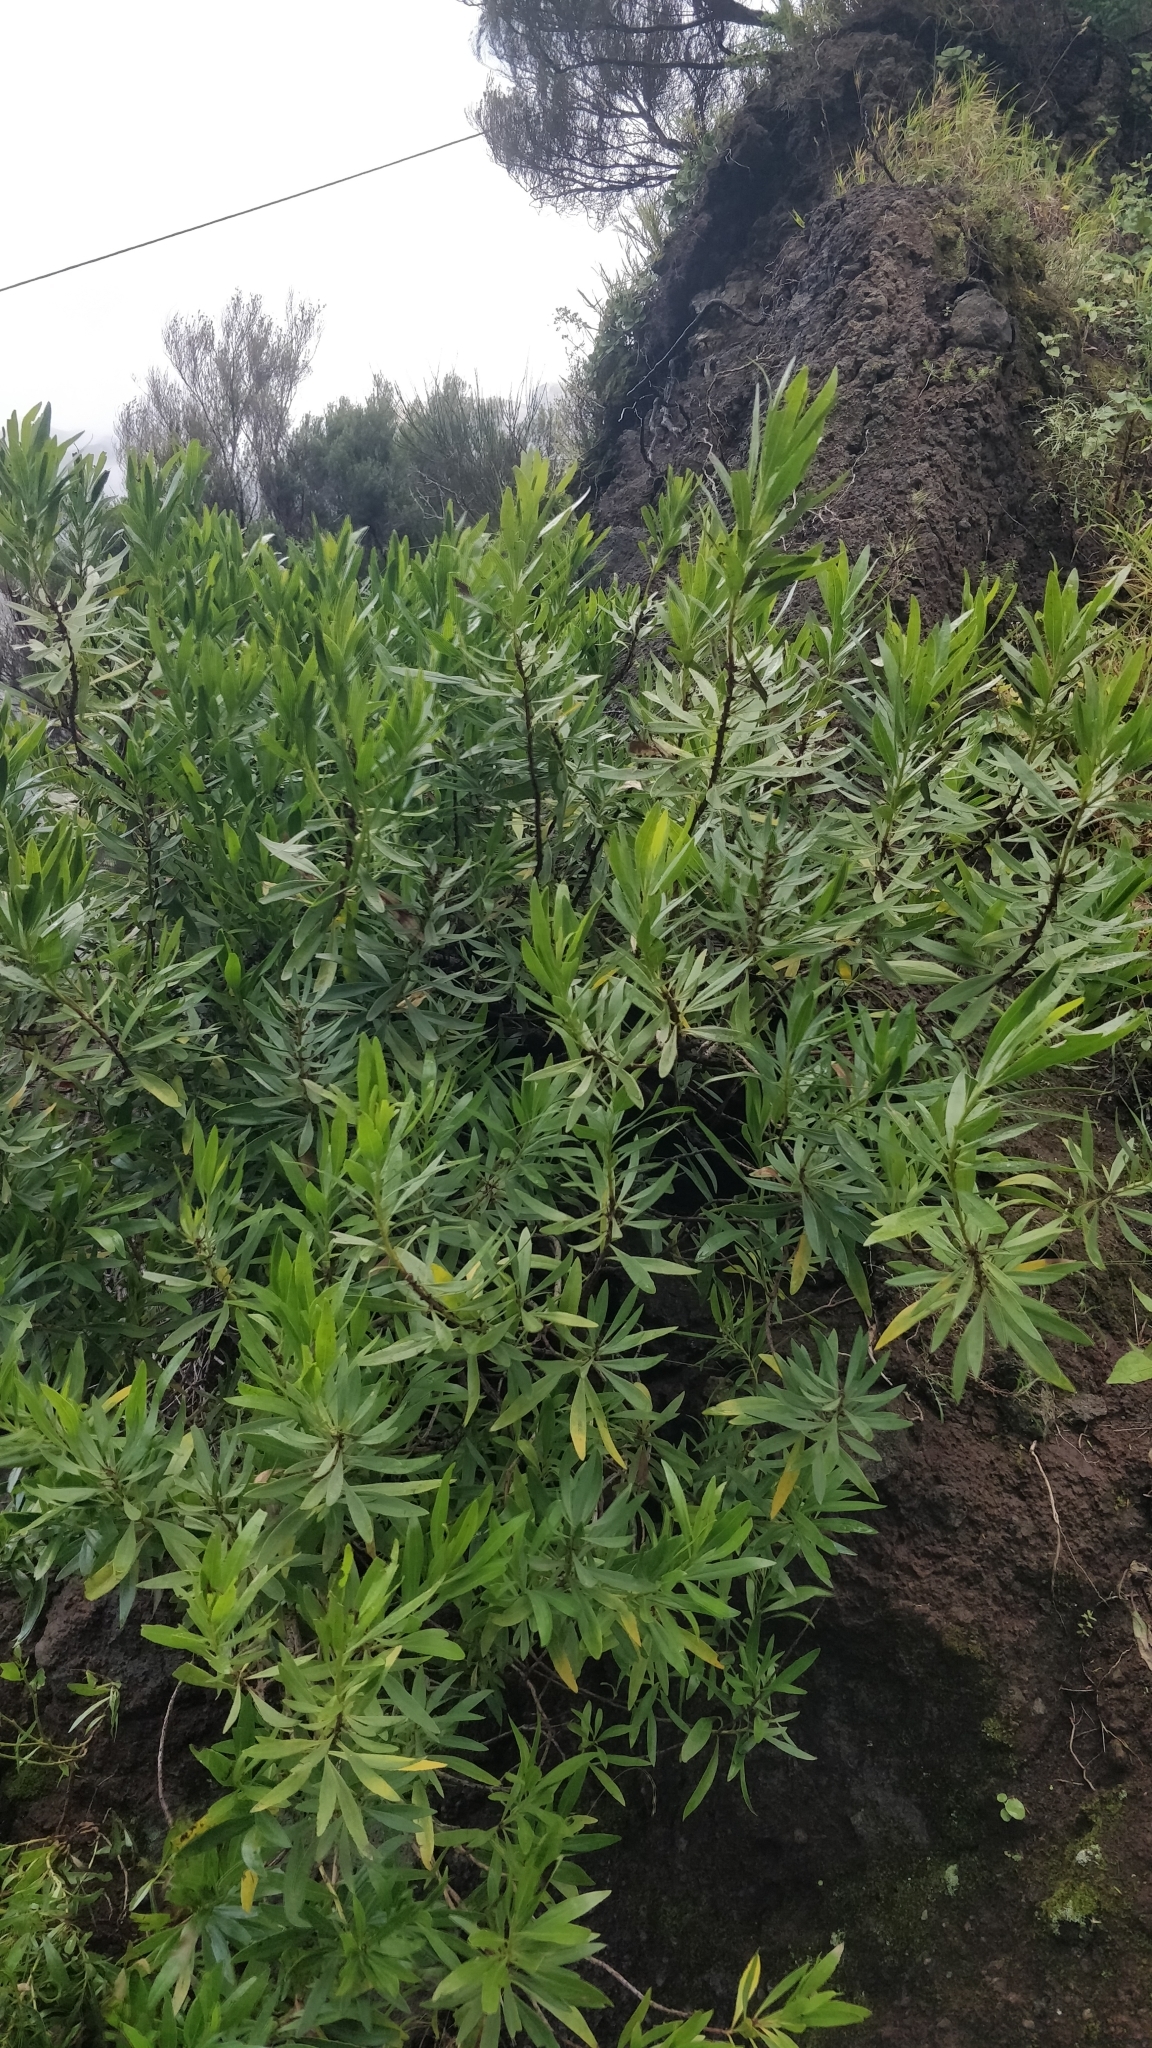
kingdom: Plantae
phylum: Tracheophyta
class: Magnoliopsida
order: Lamiales
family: Plantaginaceae
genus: Globularia
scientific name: Globularia salicina
